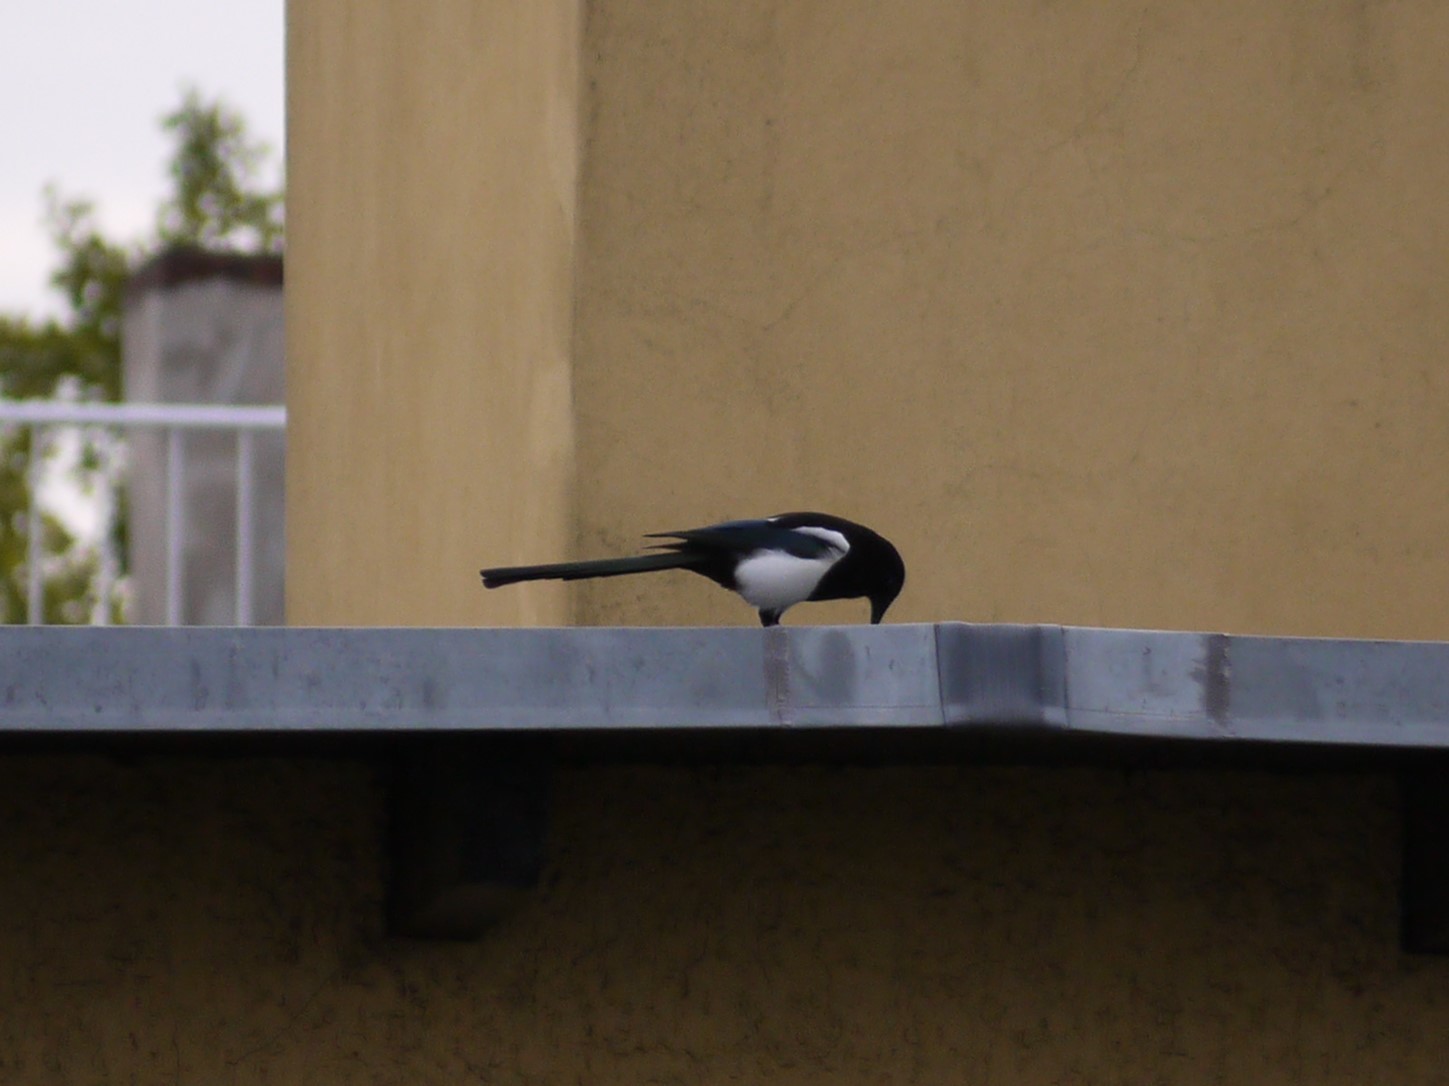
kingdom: Animalia
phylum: Chordata
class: Aves
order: Passeriformes
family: Corvidae
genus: Pica
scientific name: Pica pica
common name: Eurasian magpie
